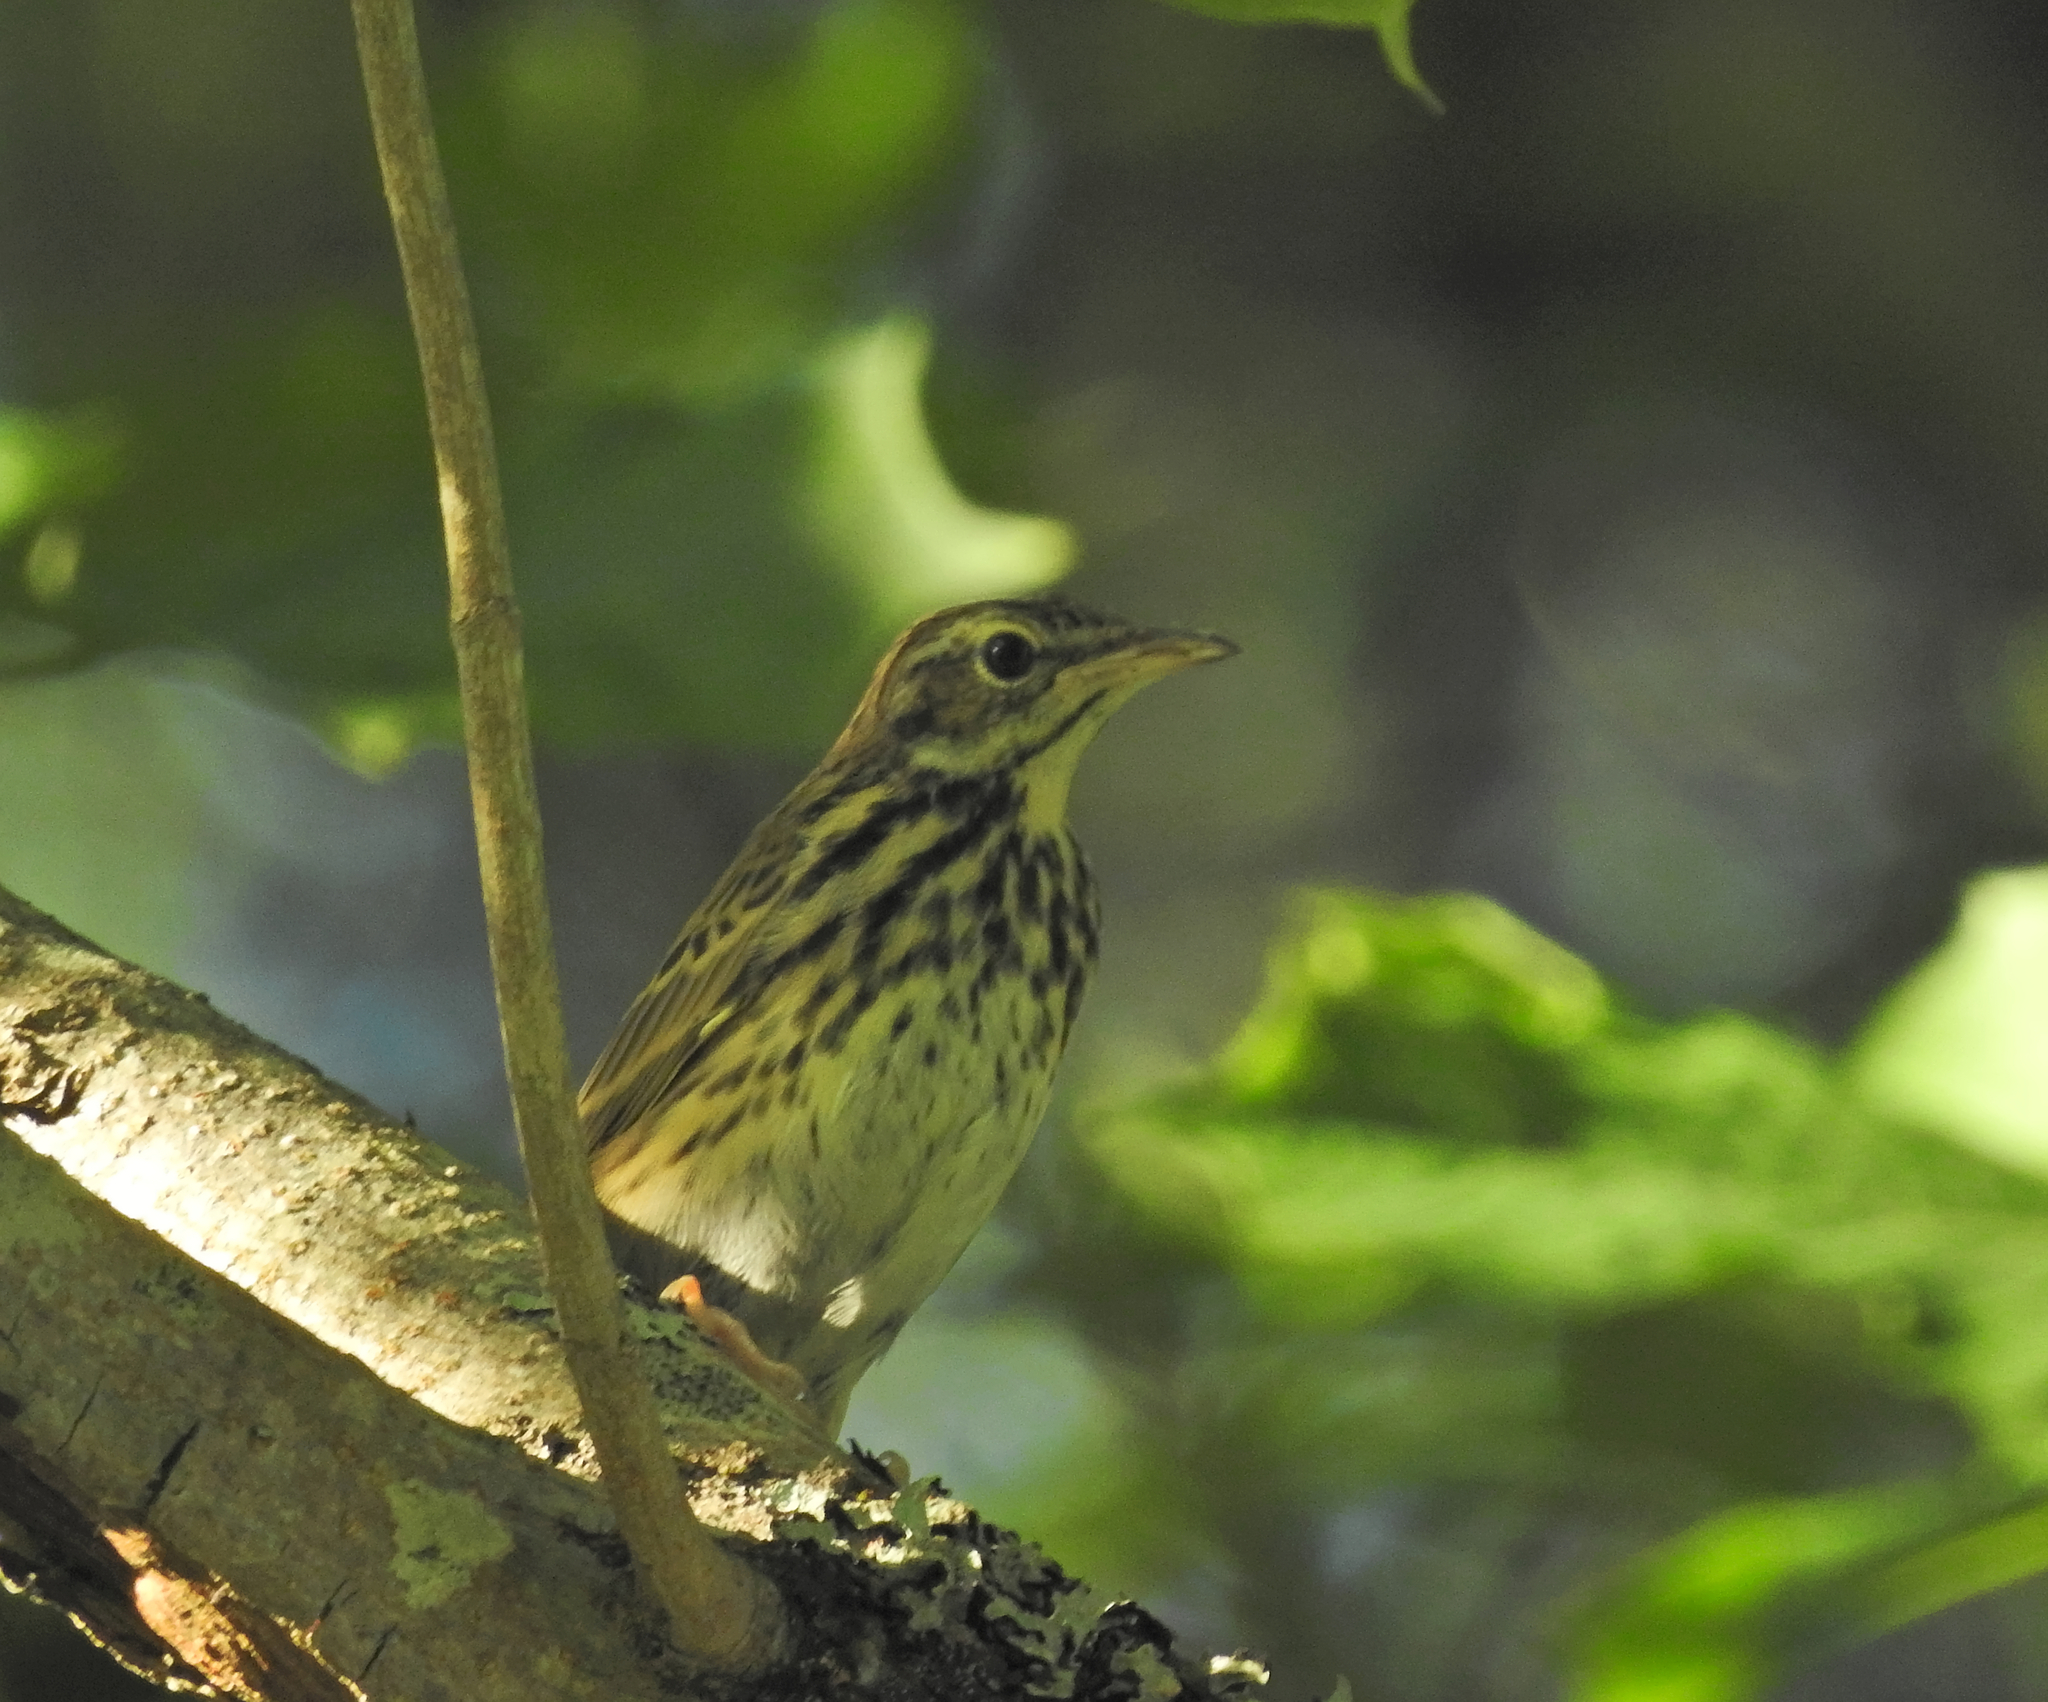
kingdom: Animalia
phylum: Chordata
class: Aves
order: Passeriformes
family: Motacillidae
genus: Anthus
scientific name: Anthus trivialis
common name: Tree pipit
